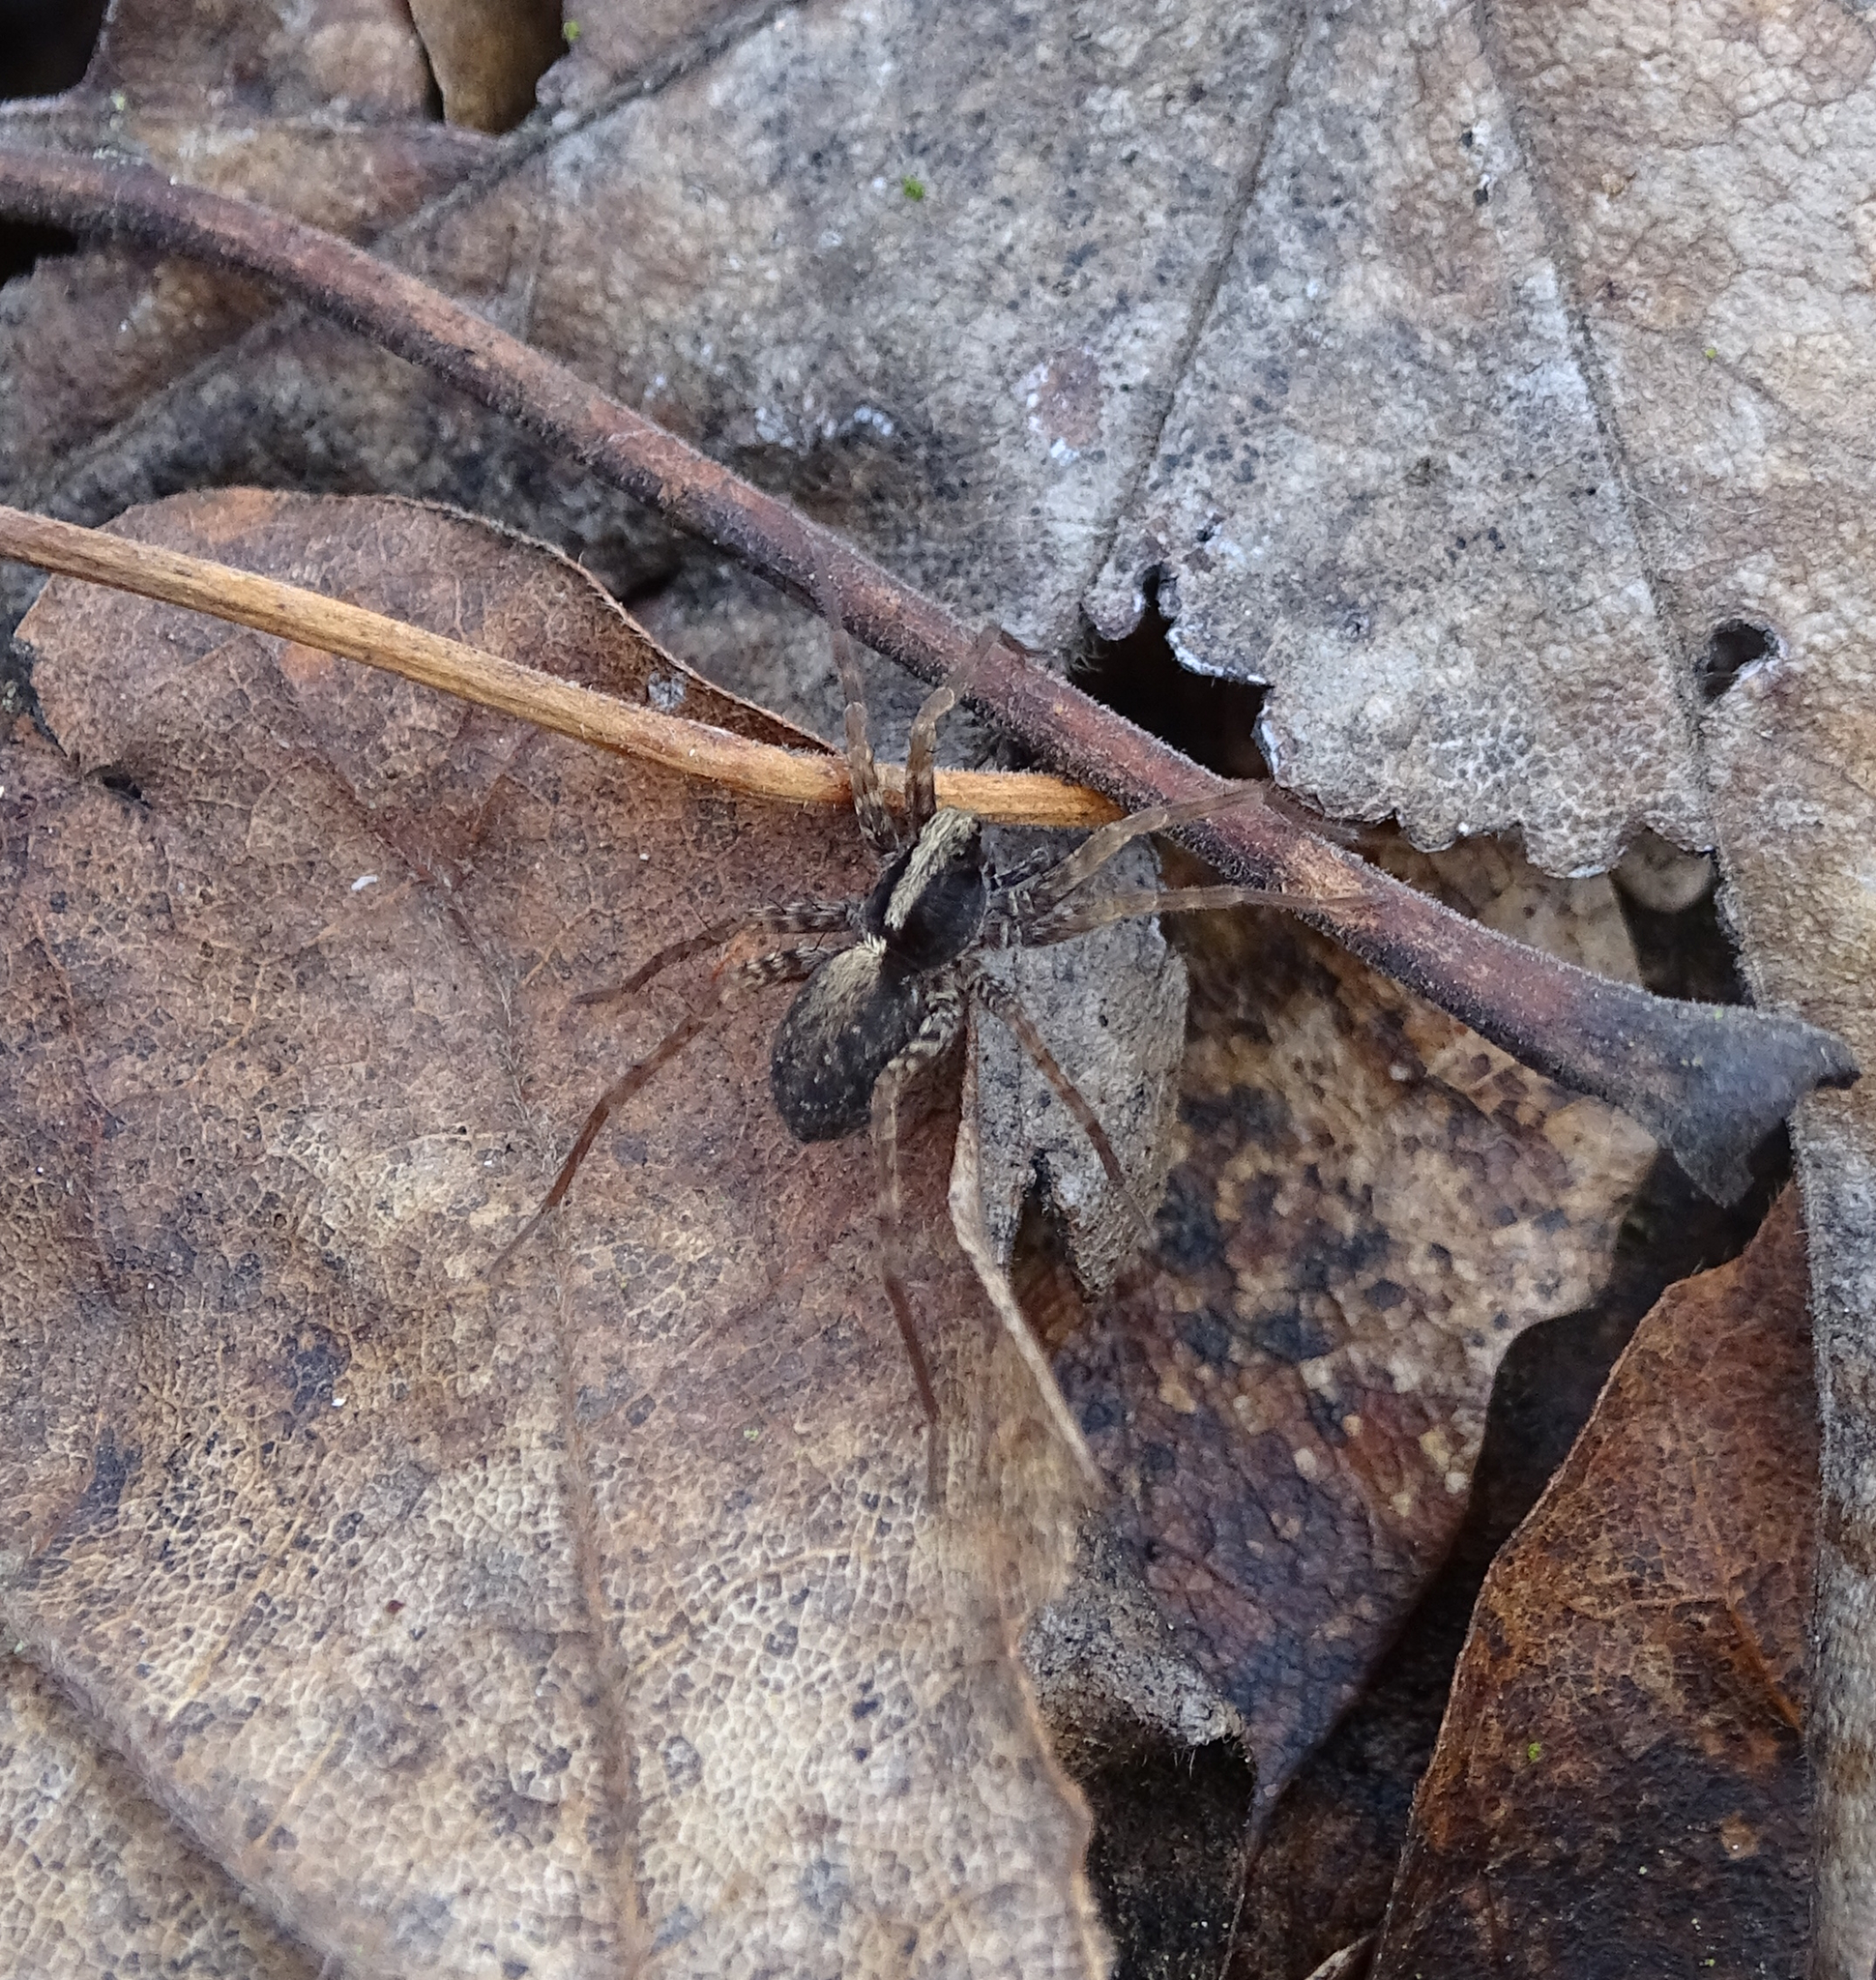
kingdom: Animalia
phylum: Arthropoda
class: Arachnida
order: Araneae
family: Lycosidae
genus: Pardosa
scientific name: Pardosa
